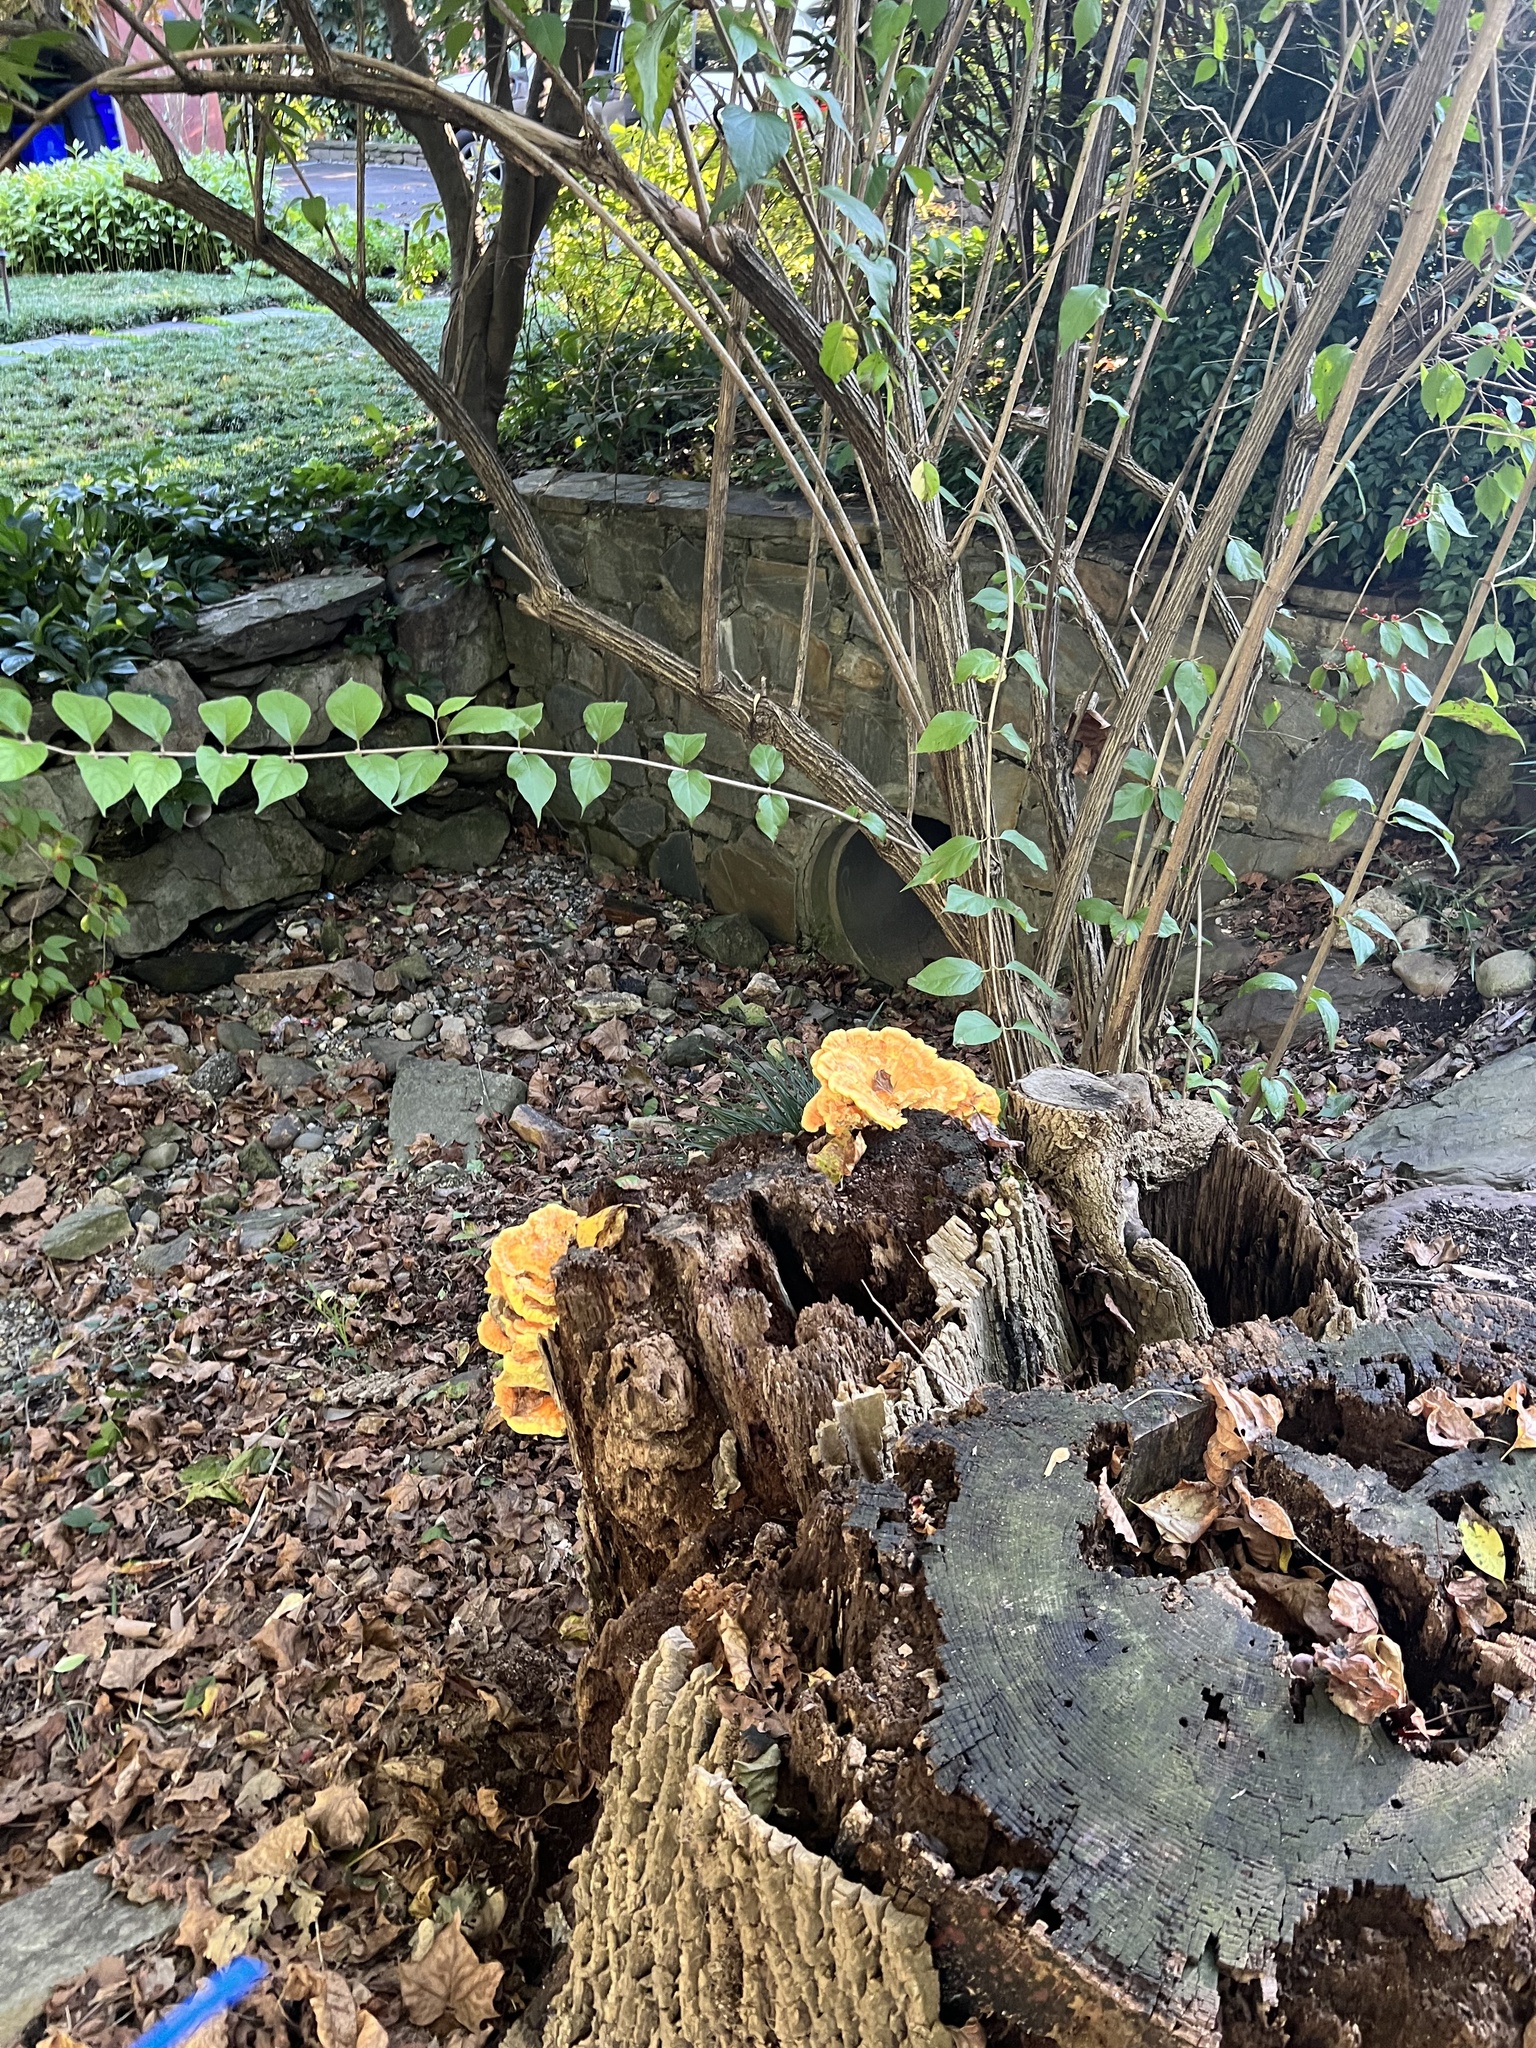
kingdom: Fungi
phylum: Basidiomycota
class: Agaricomycetes
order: Polyporales
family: Laetiporaceae
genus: Laetiporus
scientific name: Laetiporus sulphureus
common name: Chicken of the woods
